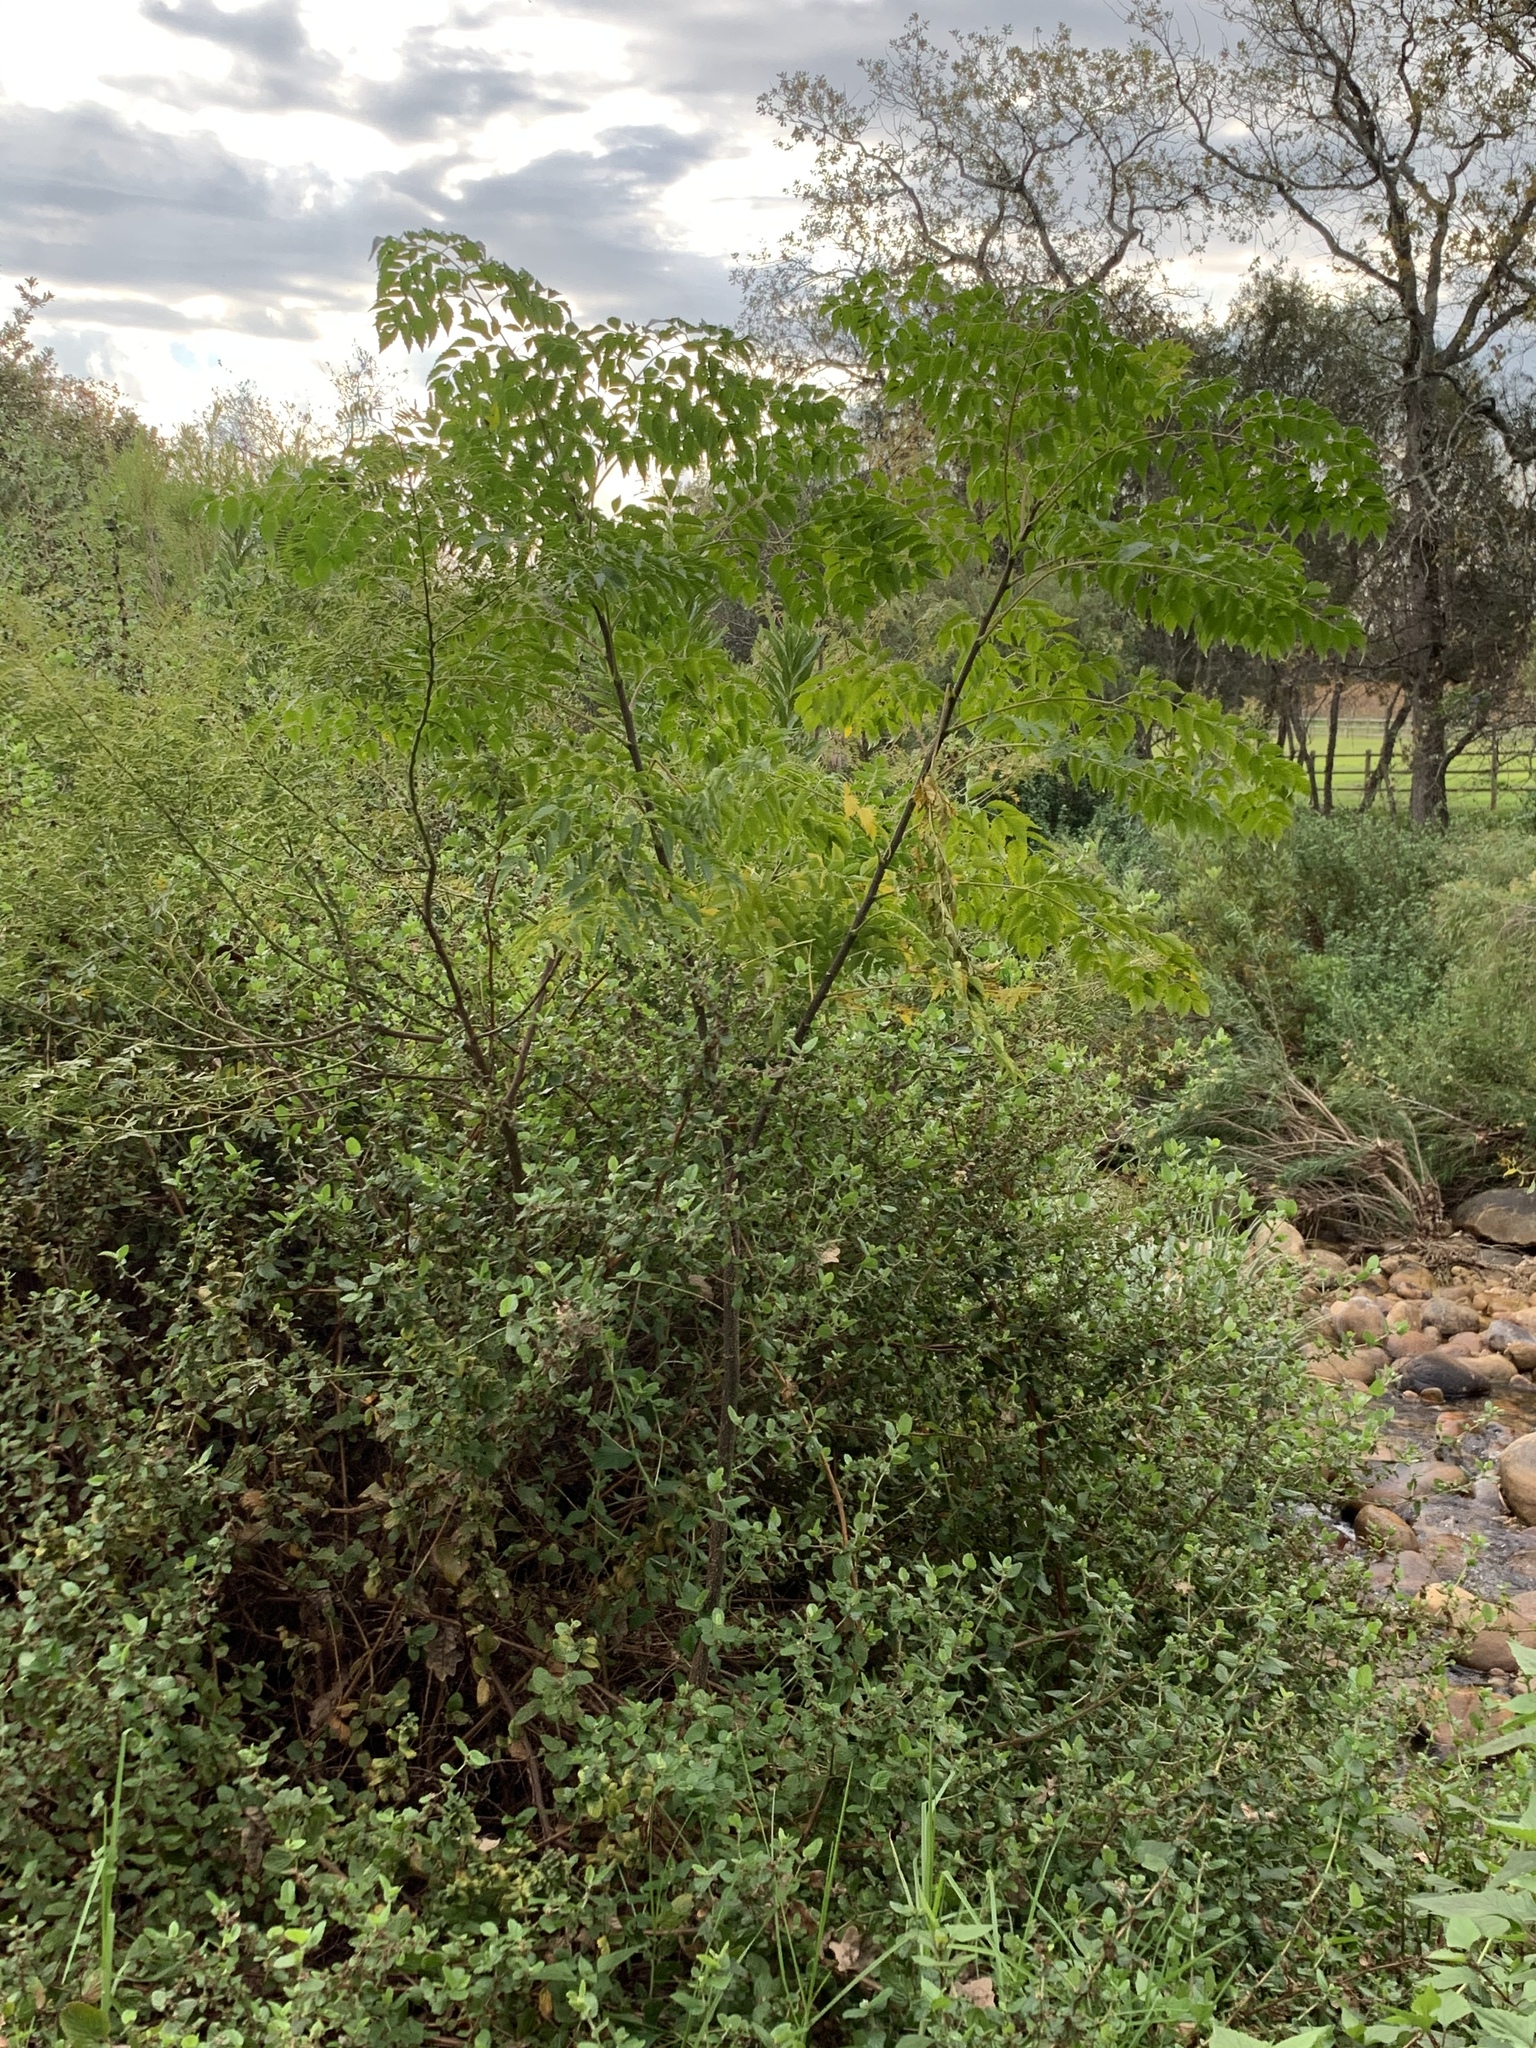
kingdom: Plantae
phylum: Tracheophyta
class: Magnoliopsida
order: Sapindales
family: Meliaceae
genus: Melia
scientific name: Melia azedarach
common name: Chinaberrytree
